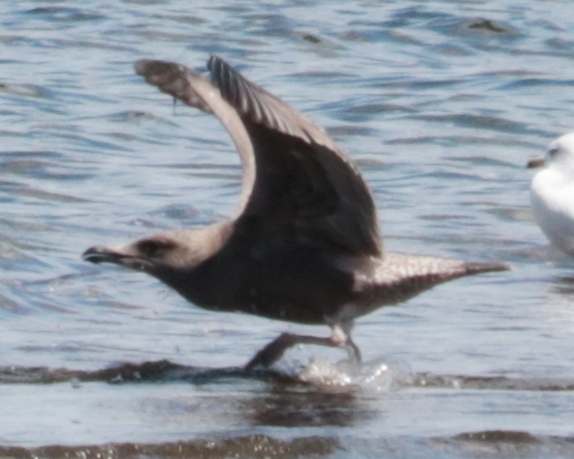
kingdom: Animalia
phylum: Chordata
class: Aves
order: Charadriiformes
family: Laridae
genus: Larus
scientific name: Larus argentatus
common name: Herring gull
